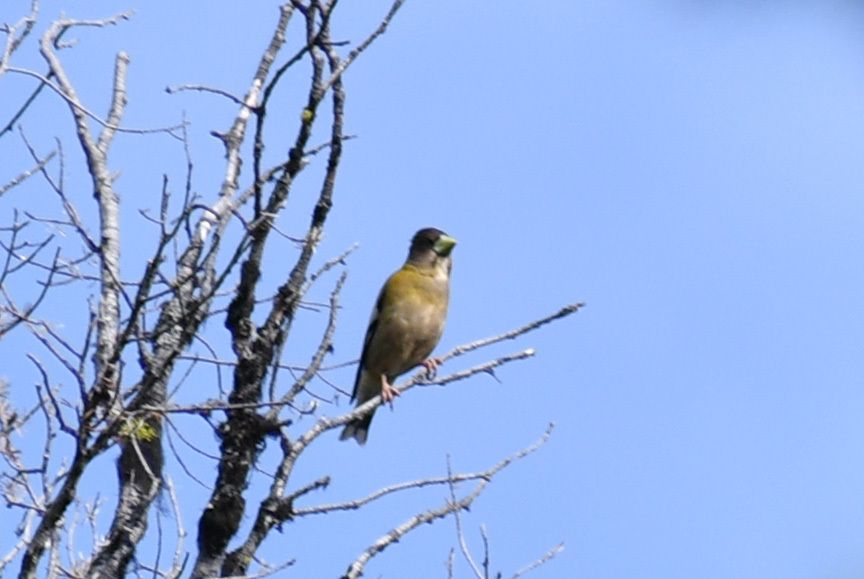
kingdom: Animalia
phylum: Chordata
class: Aves
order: Passeriformes
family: Fringillidae
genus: Hesperiphona
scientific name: Hesperiphona vespertina
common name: Evening grosbeak
